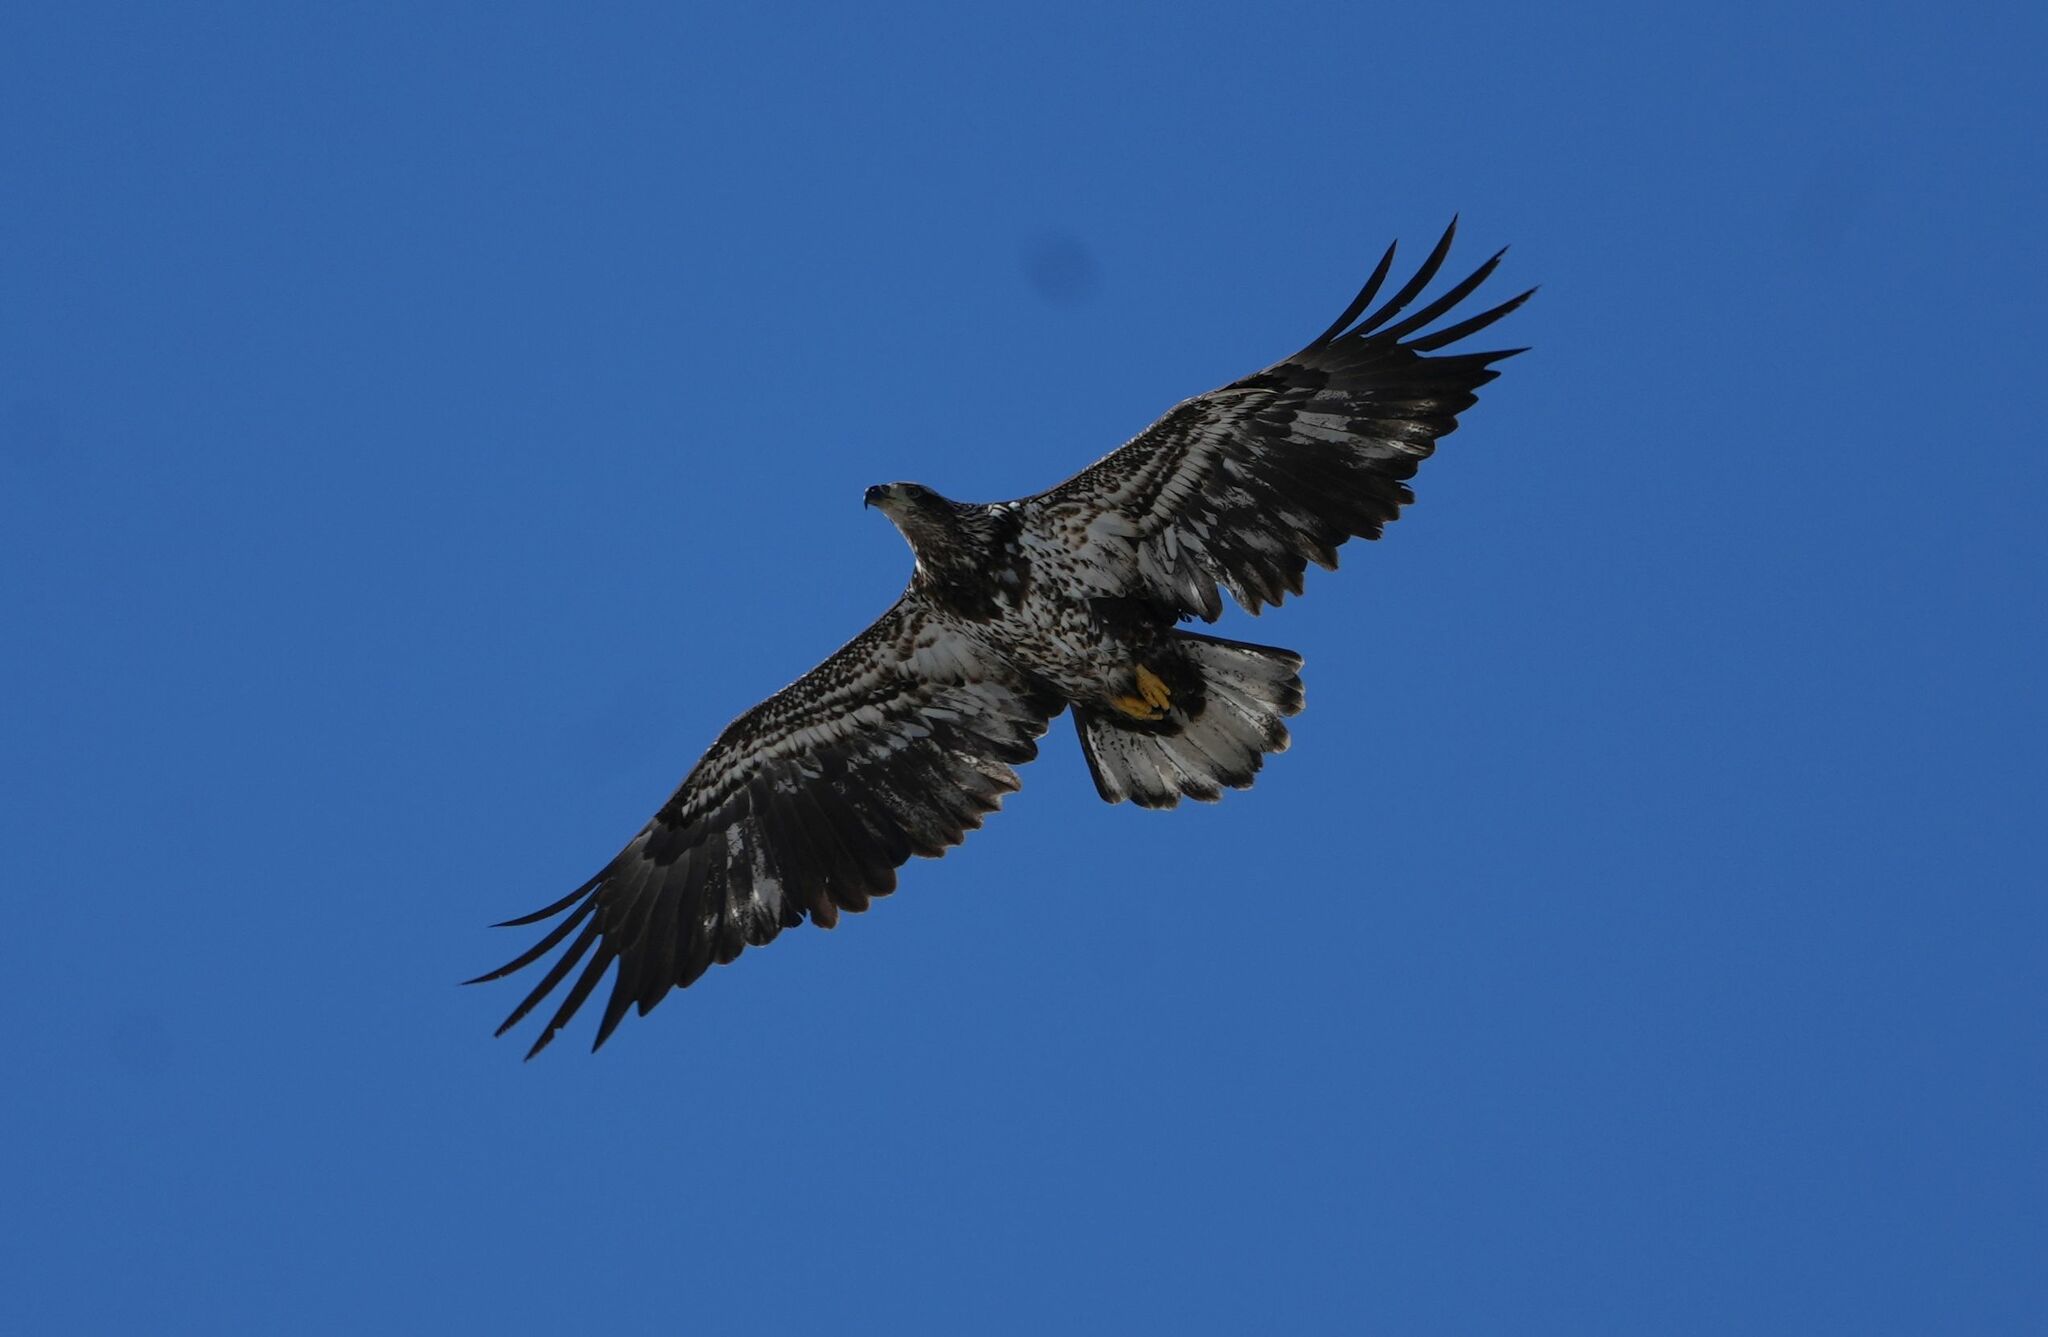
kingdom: Animalia
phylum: Chordata
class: Aves
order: Accipitriformes
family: Accipitridae
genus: Haliaeetus
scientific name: Haliaeetus leucocephalus
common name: Bald eagle
